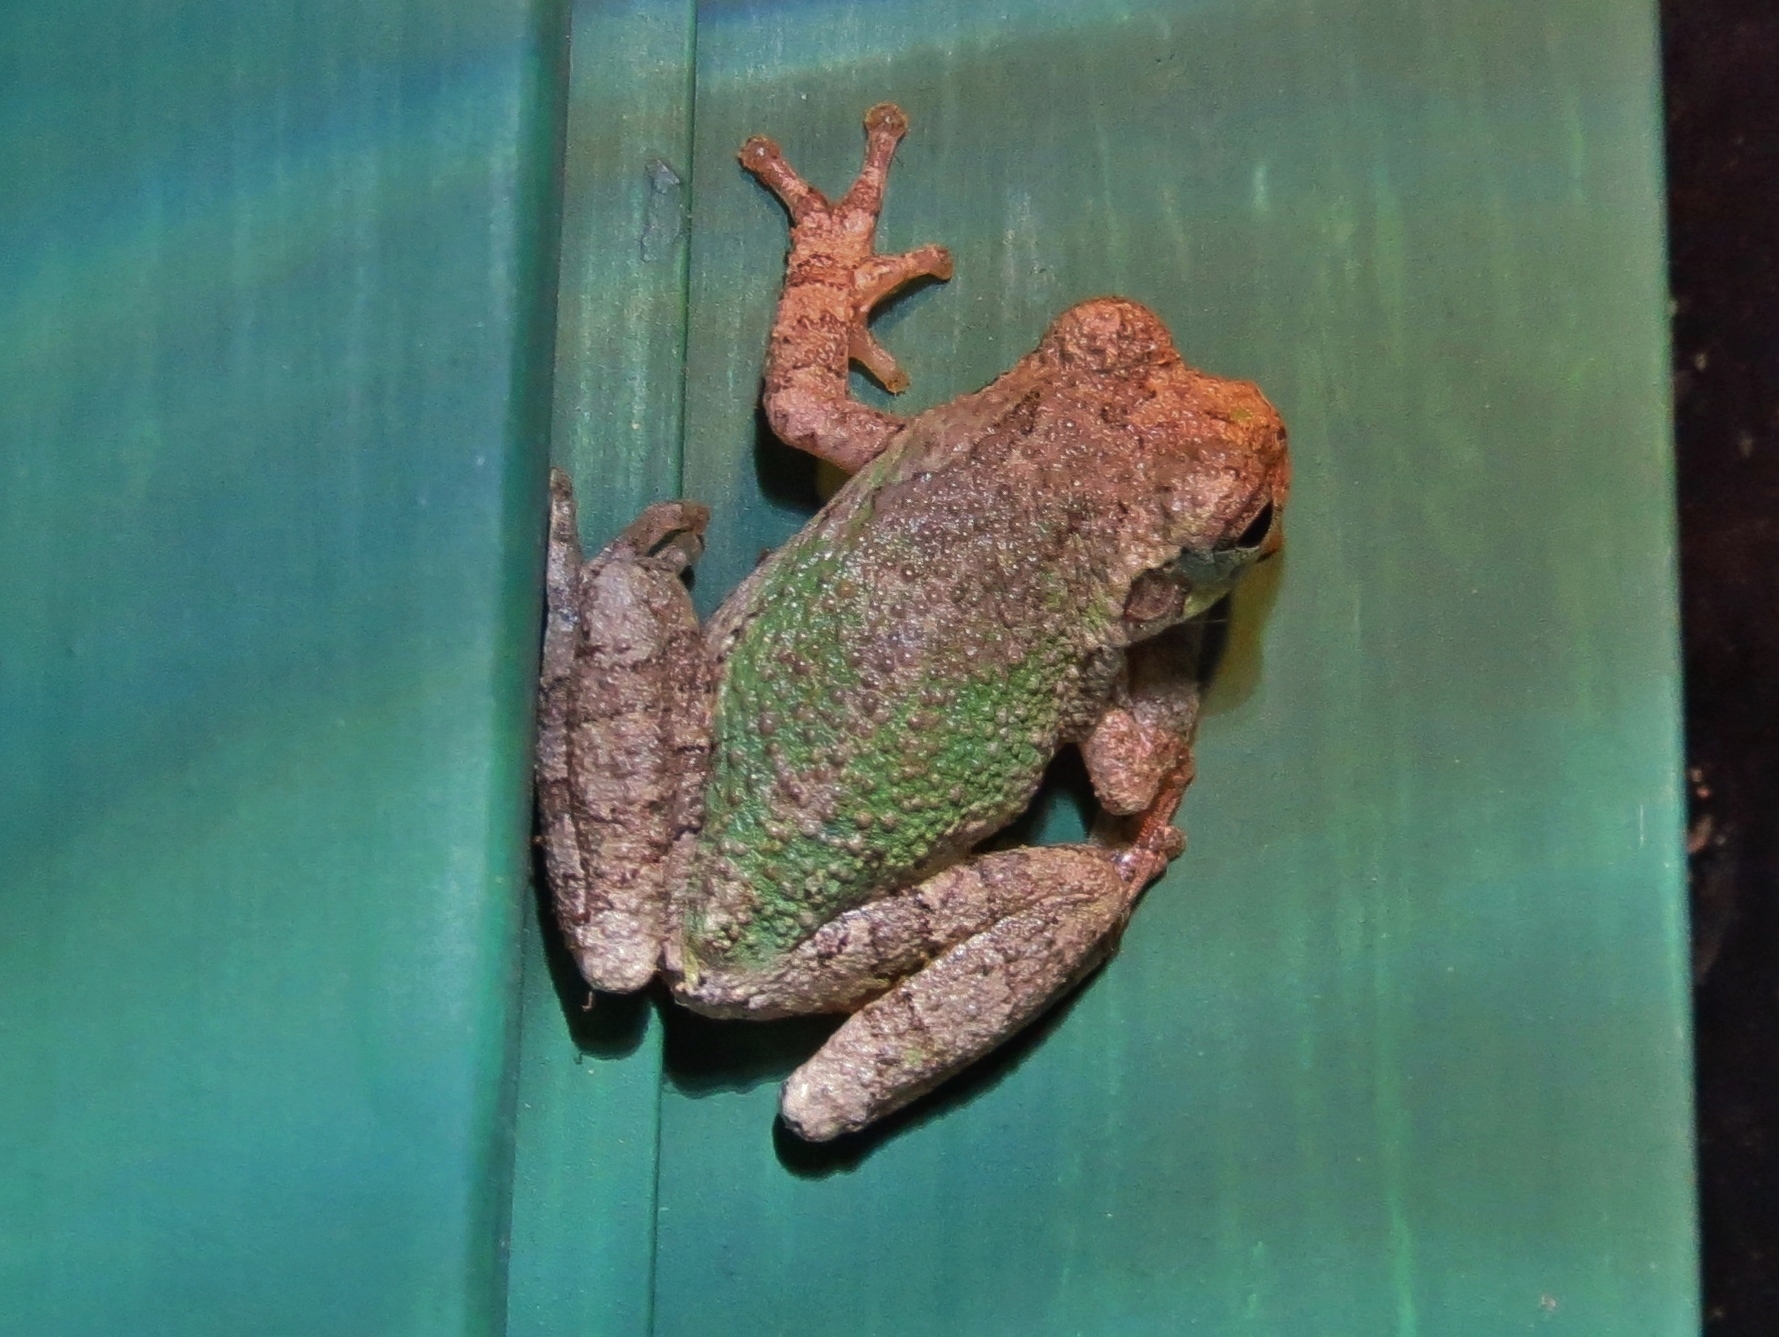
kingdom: Animalia
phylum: Chordata
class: Amphibia
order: Anura
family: Hylidae
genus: Hyla
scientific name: Hyla
